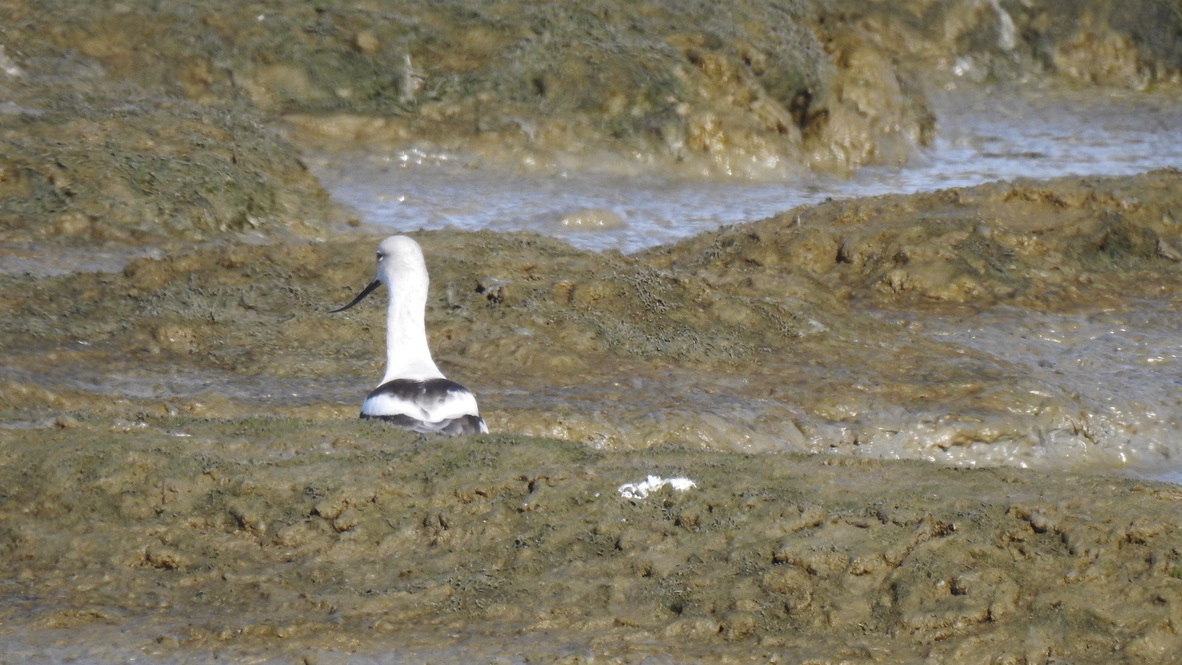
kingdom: Animalia
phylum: Chordata
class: Aves
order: Charadriiformes
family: Recurvirostridae
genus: Recurvirostra
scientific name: Recurvirostra americana
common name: American avocet
